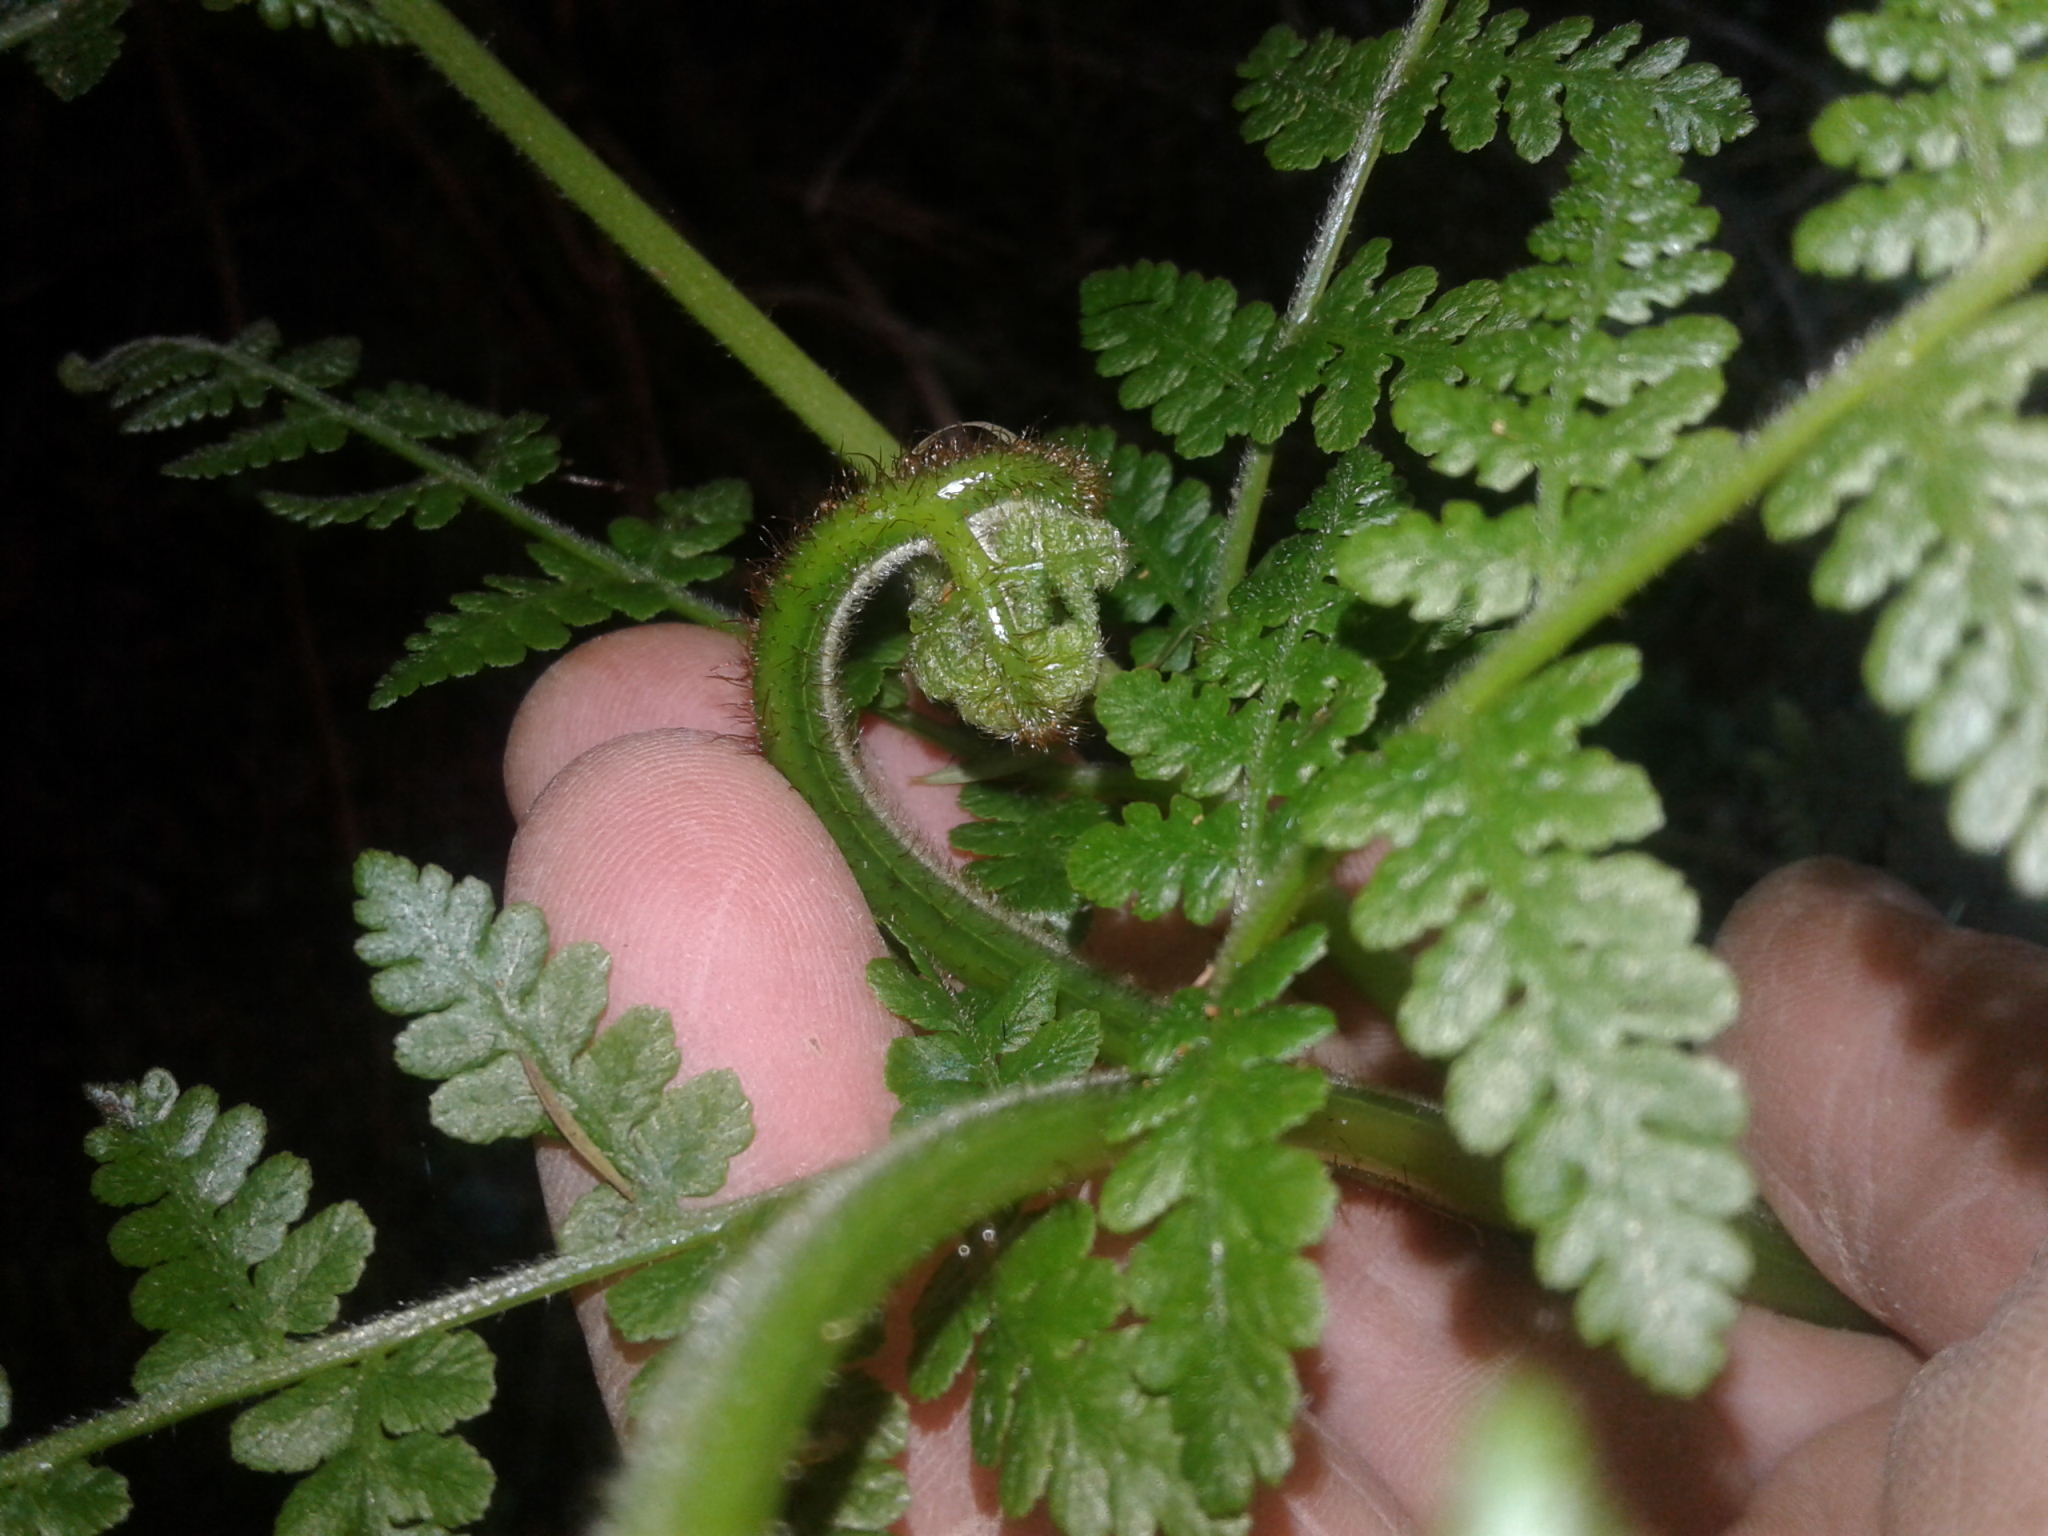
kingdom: Plantae
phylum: Tracheophyta
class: Polypodiopsida
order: Polypodiales
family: Dennstaedtiaceae
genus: Hypolepis
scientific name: Hypolepis ambigua
